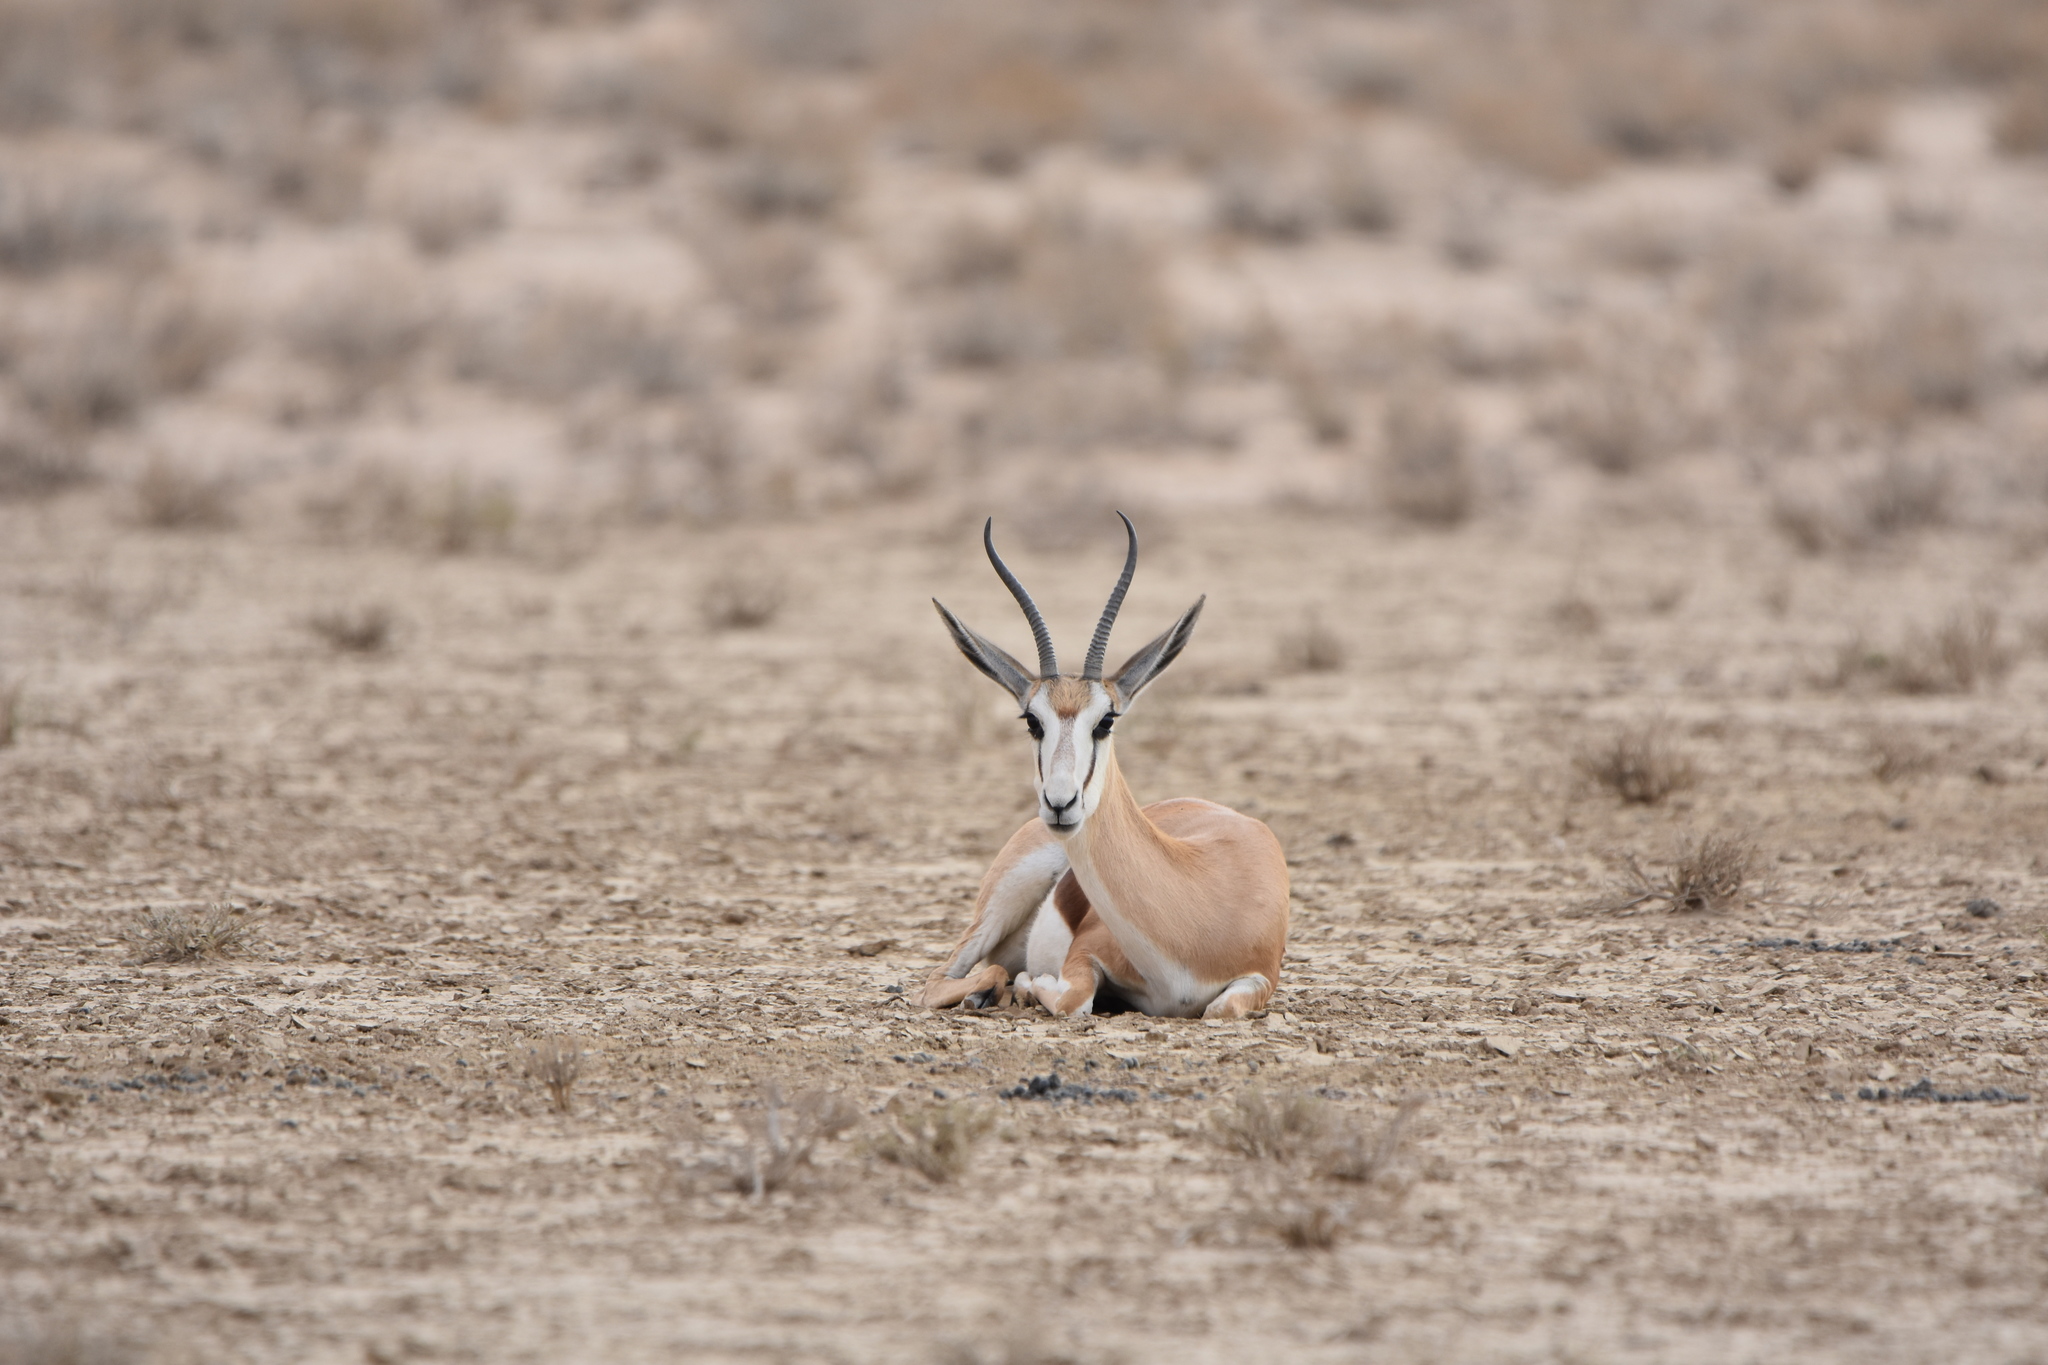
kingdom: Animalia
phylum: Chordata
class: Mammalia
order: Artiodactyla
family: Bovidae
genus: Antidorcas
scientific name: Antidorcas marsupialis
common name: Springbok
